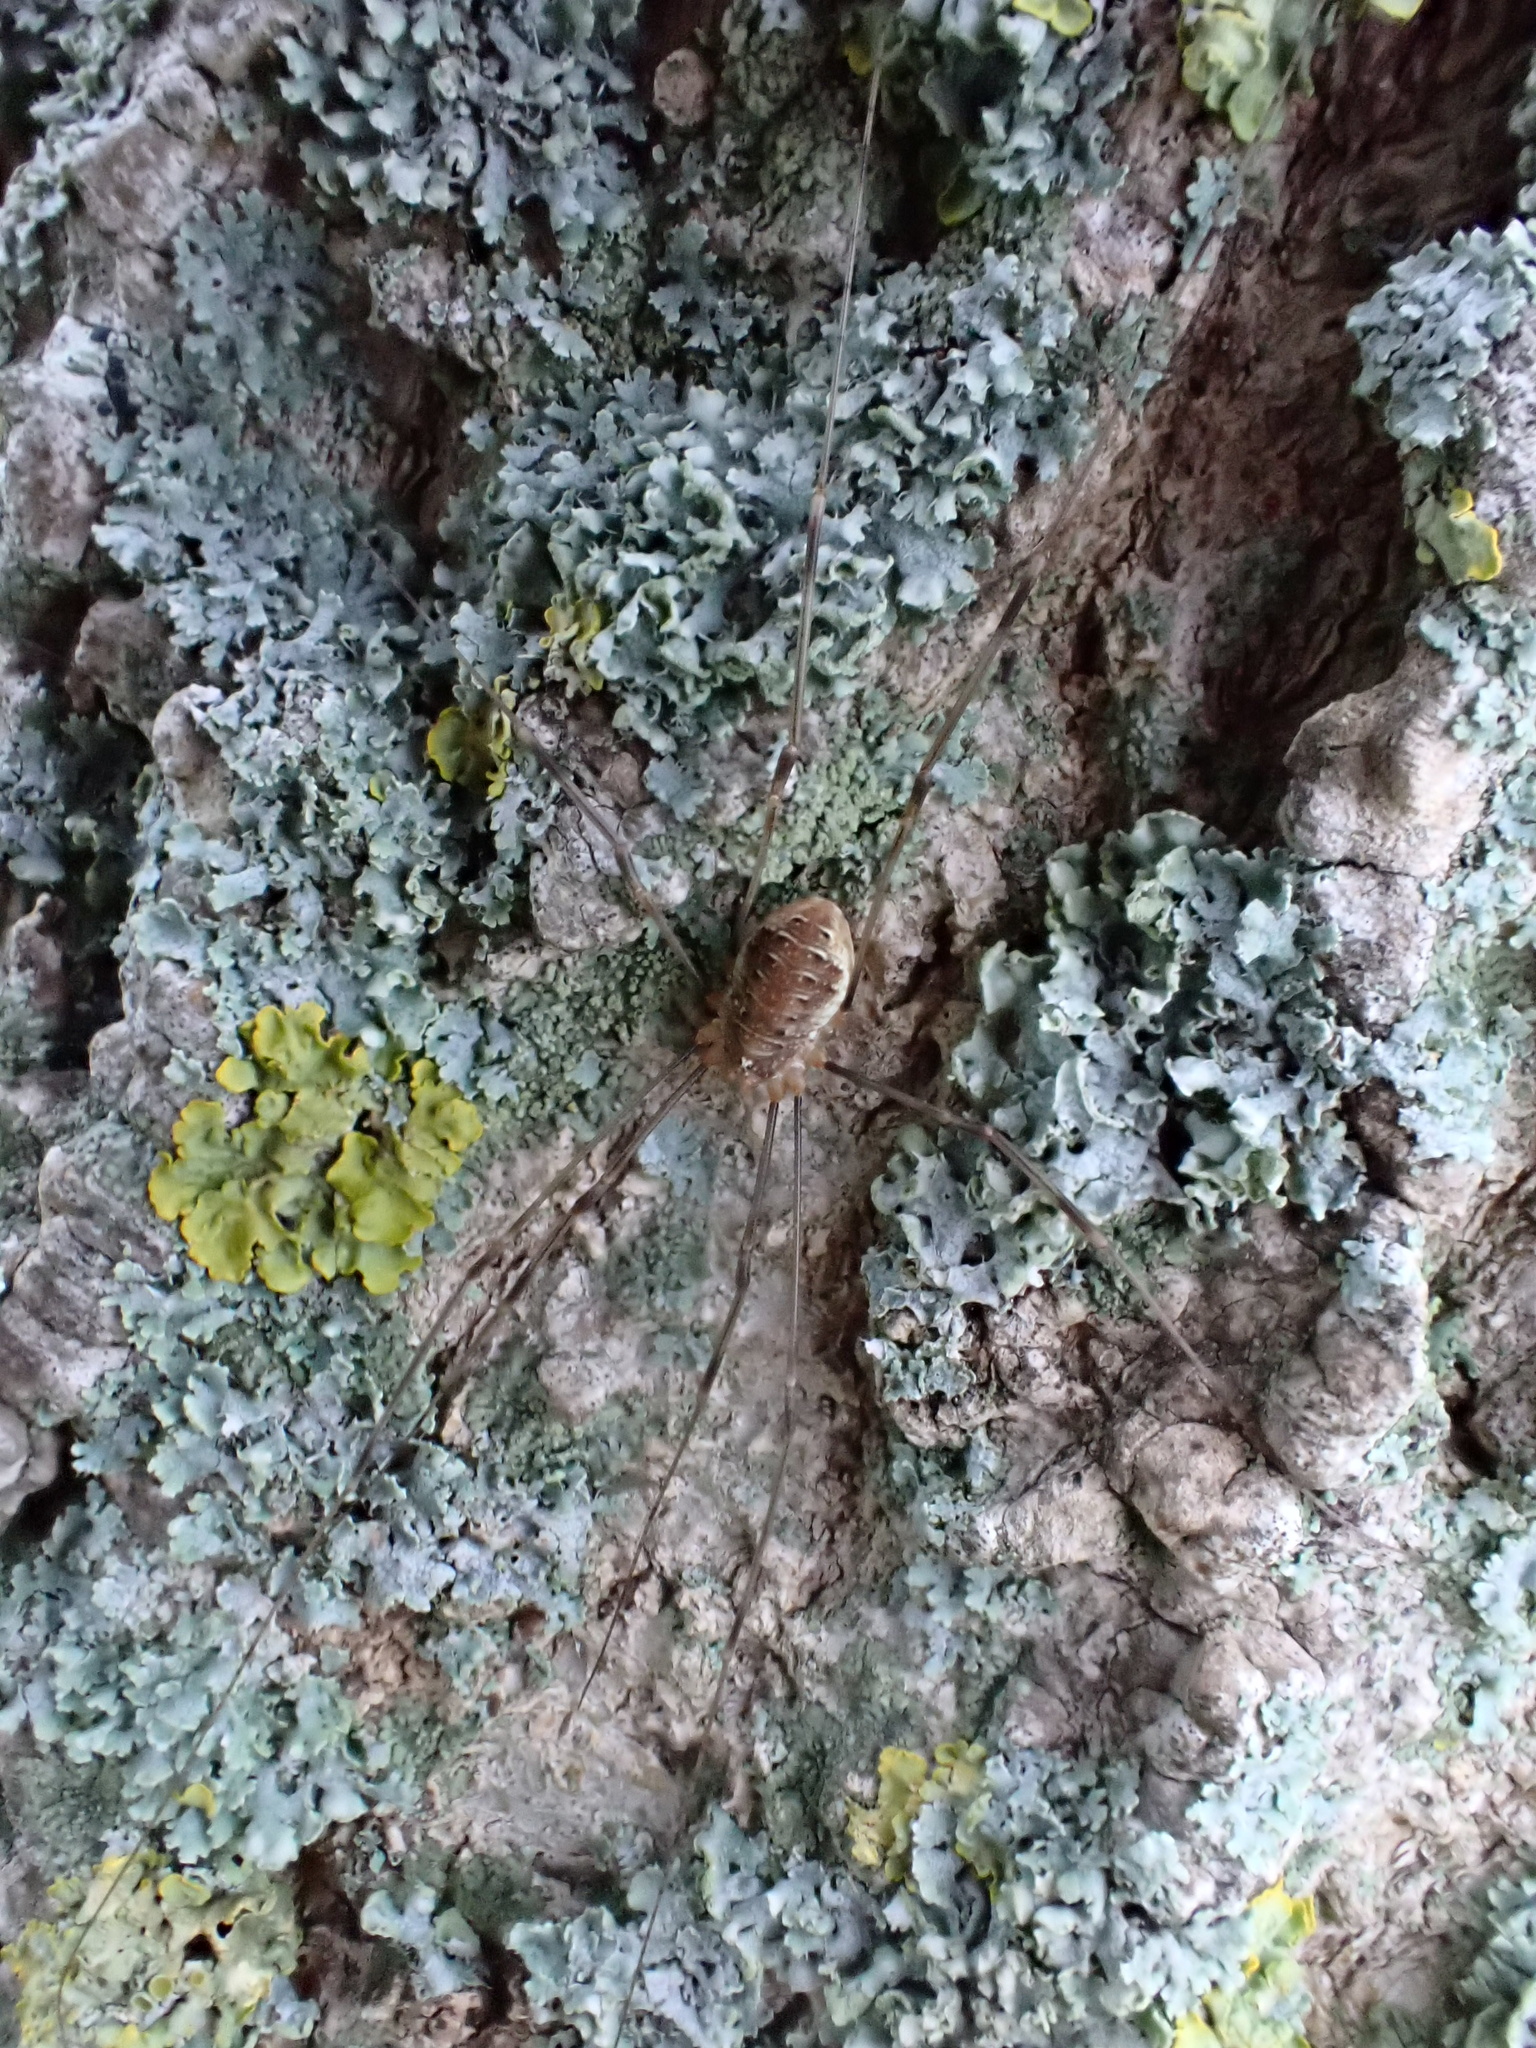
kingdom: Animalia
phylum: Arthropoda
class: Arachnida
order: Opiliones
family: Phalangiidae
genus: Opilio
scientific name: Opilio canestrinii
